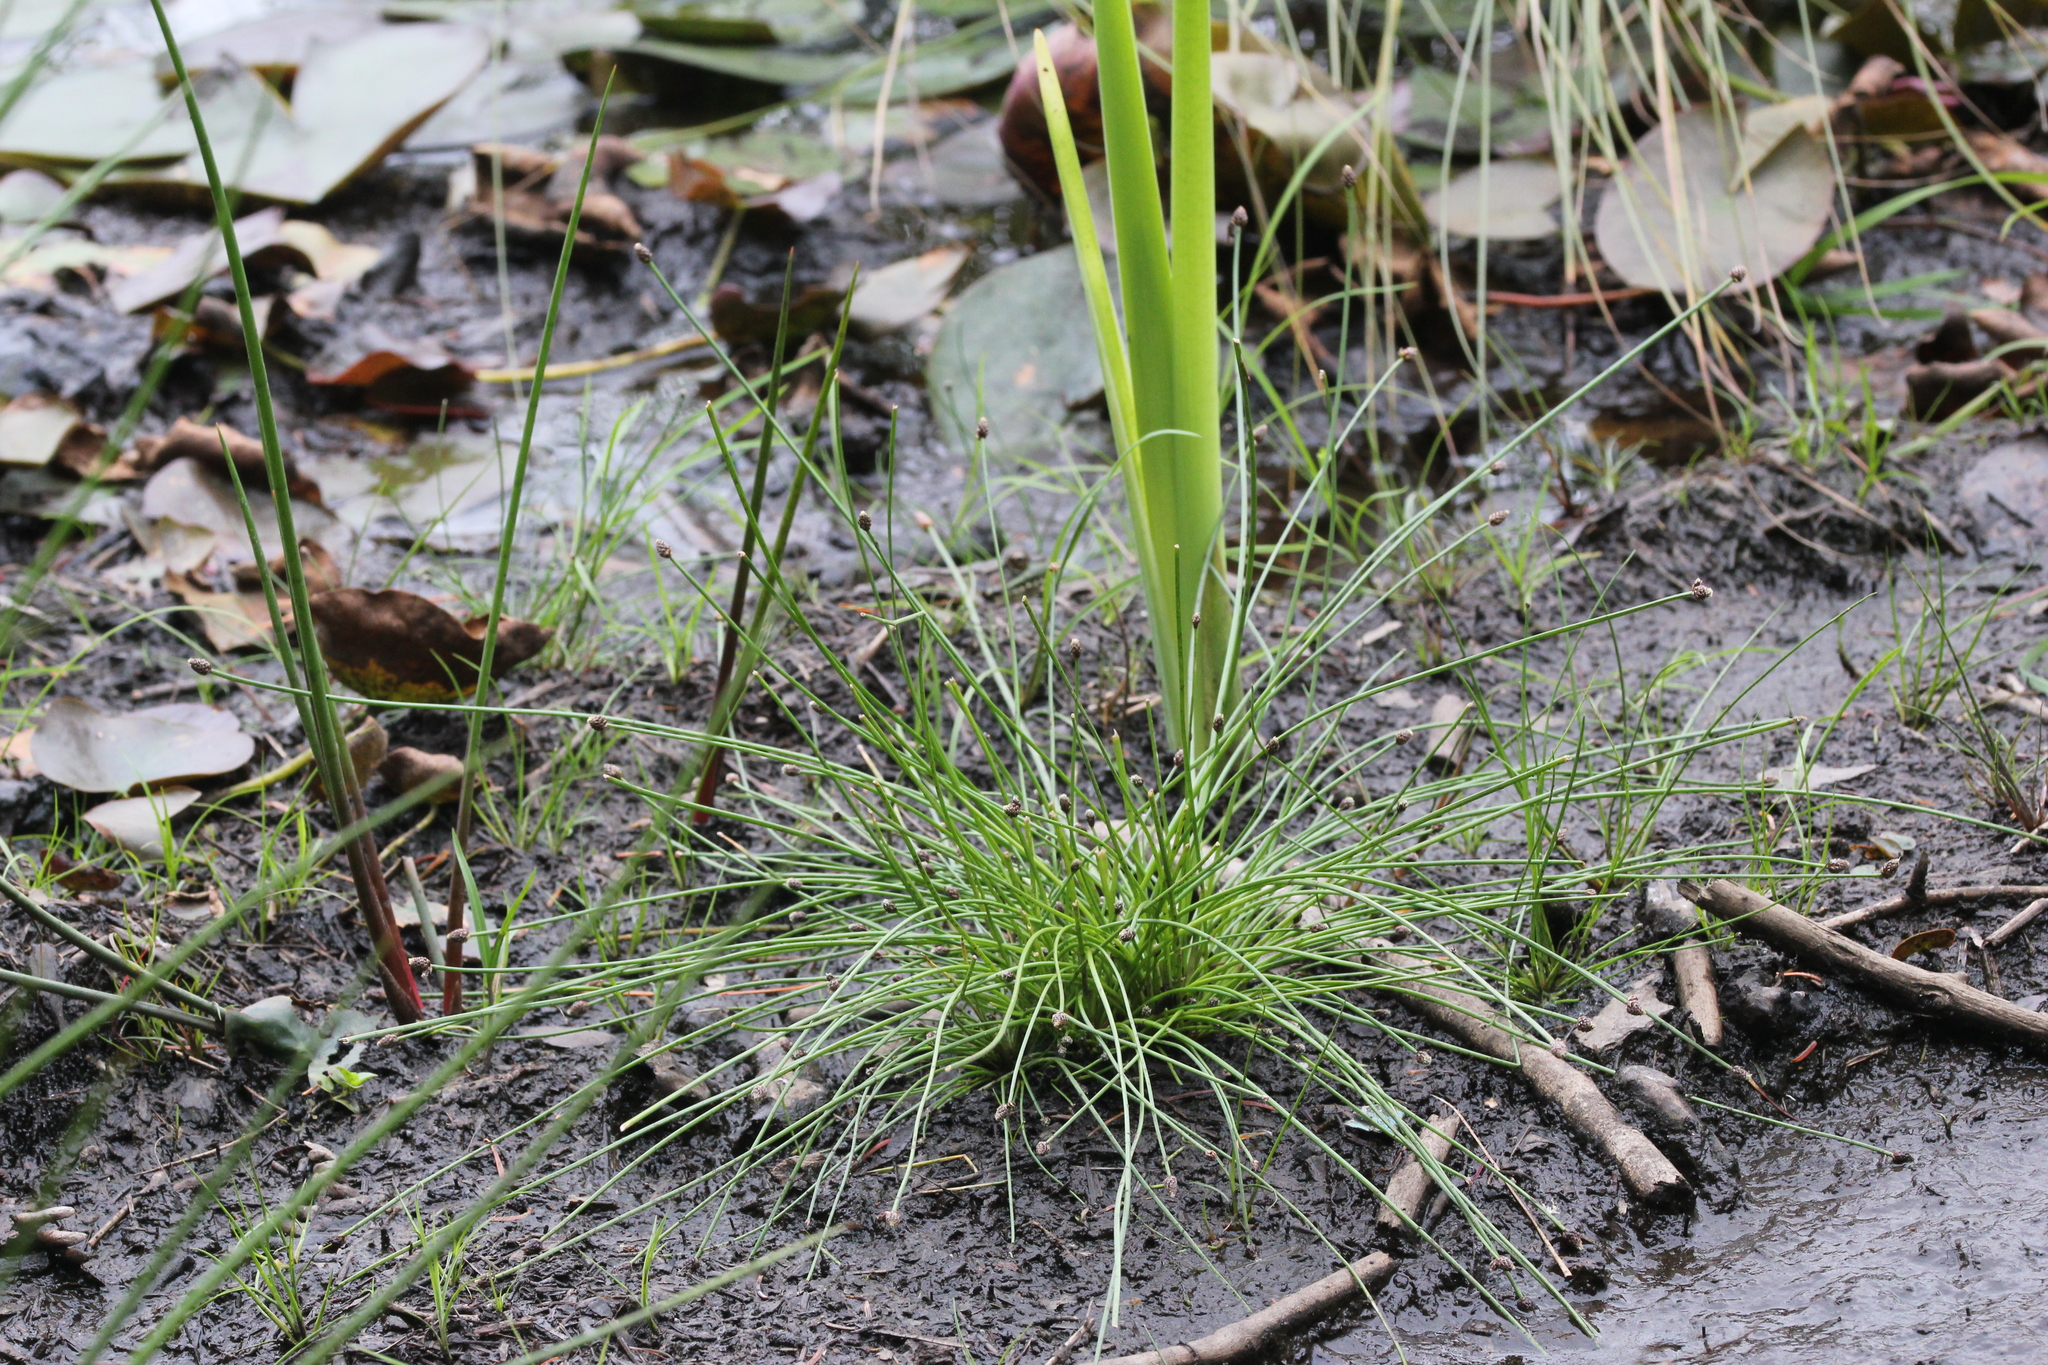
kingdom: Plantae
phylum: Tracheophyta
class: Liliopsida
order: Poales
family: Cyperaceae
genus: Eleocharis
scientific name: Eleocharis ovata
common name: Oval spike-rush
